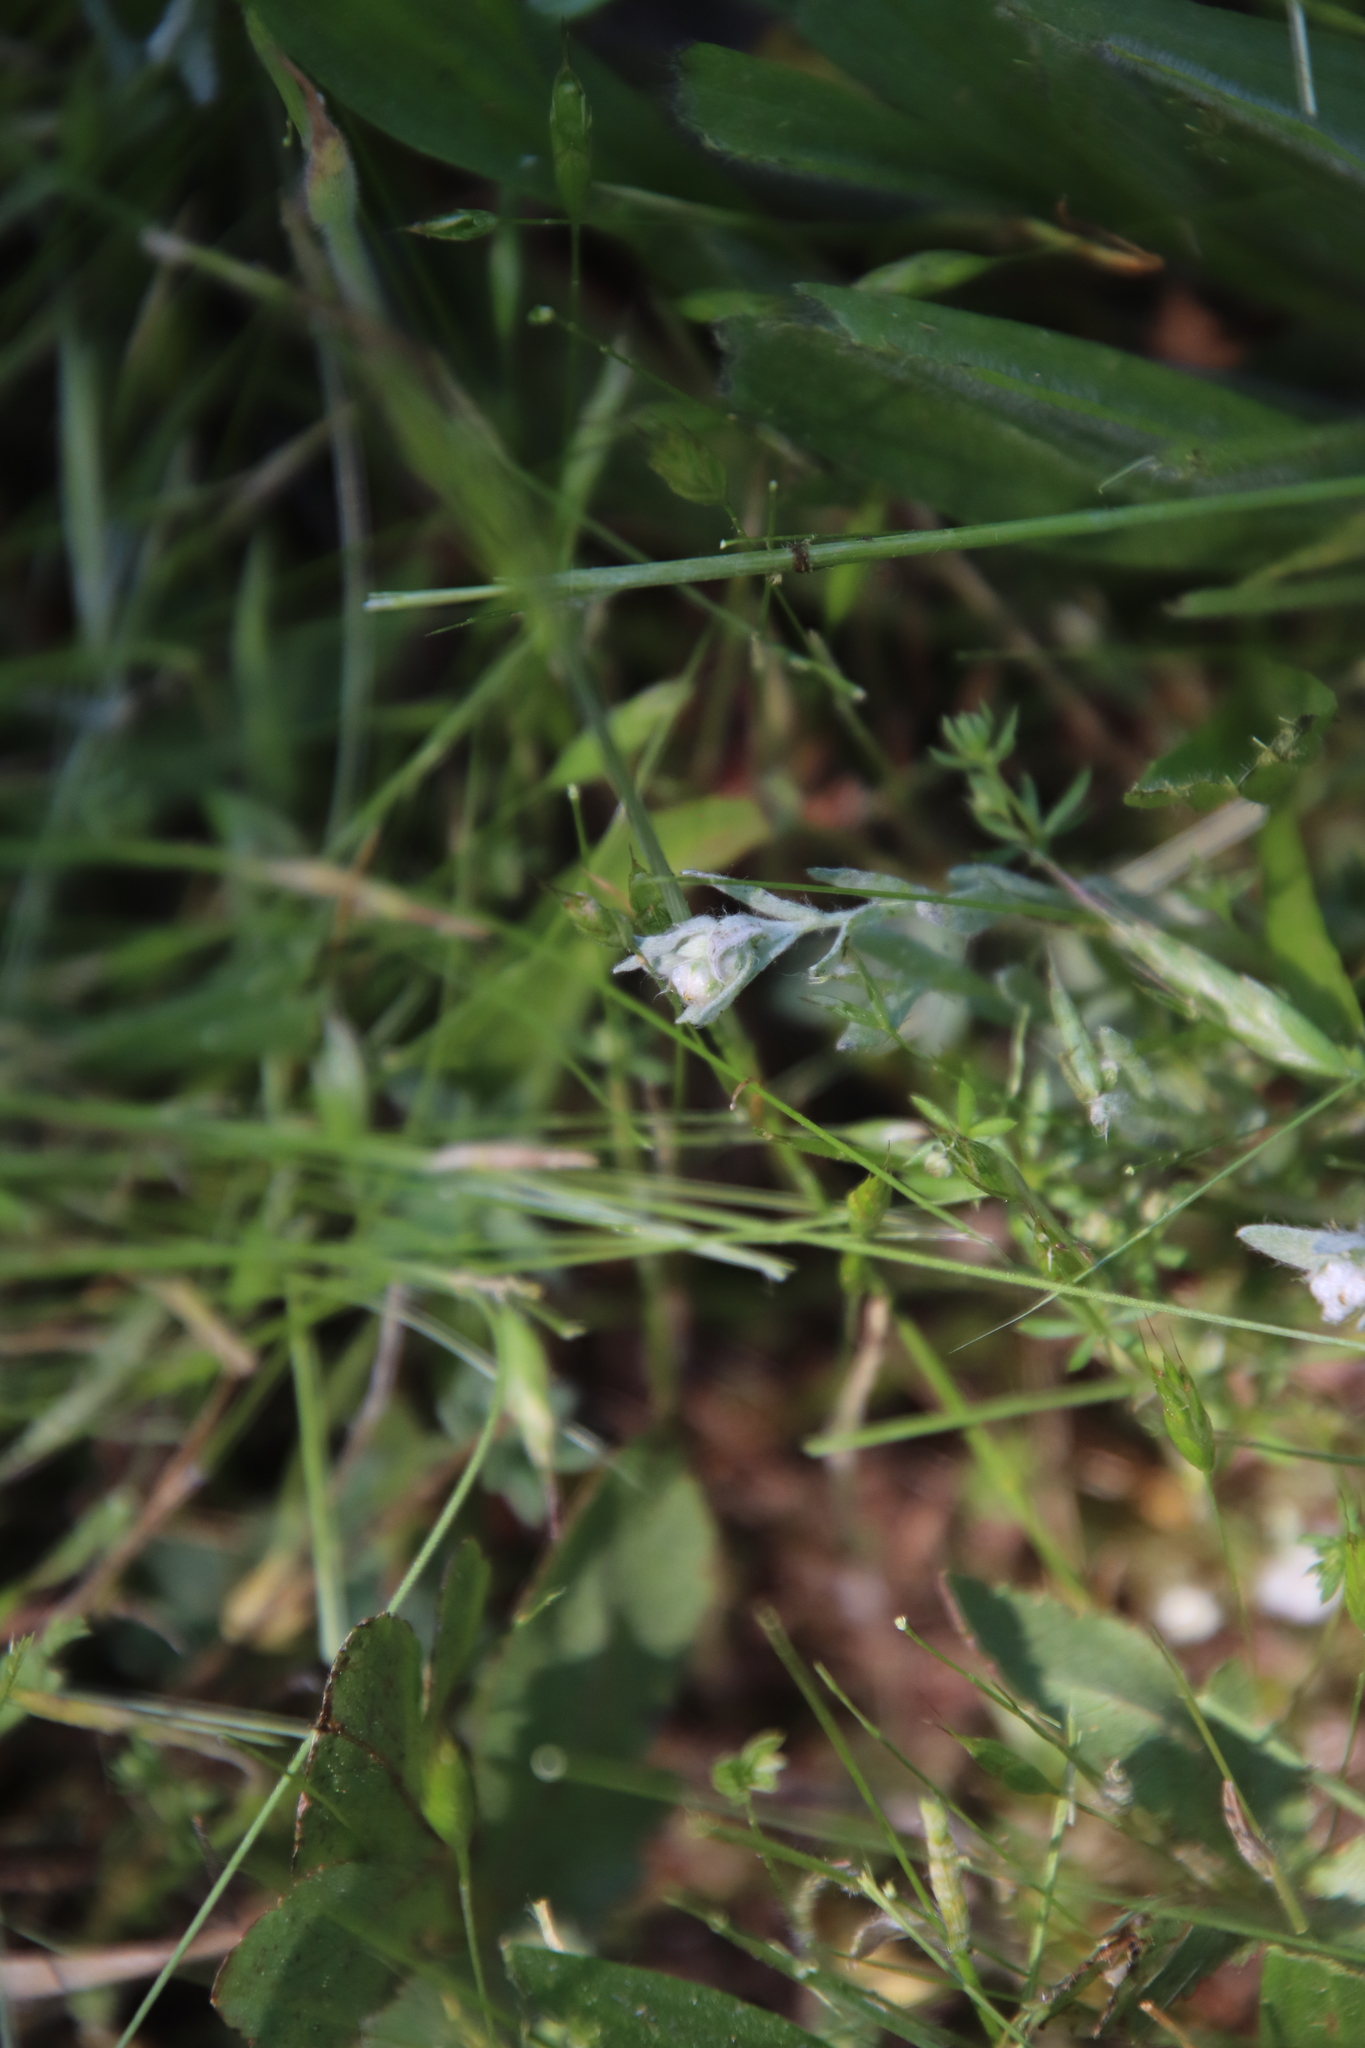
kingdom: Plantae
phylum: Tracheophyta
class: Magnoliopsida
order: Asterales
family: Asteraceae
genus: Bombycilaena
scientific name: Bombycilaena californica
